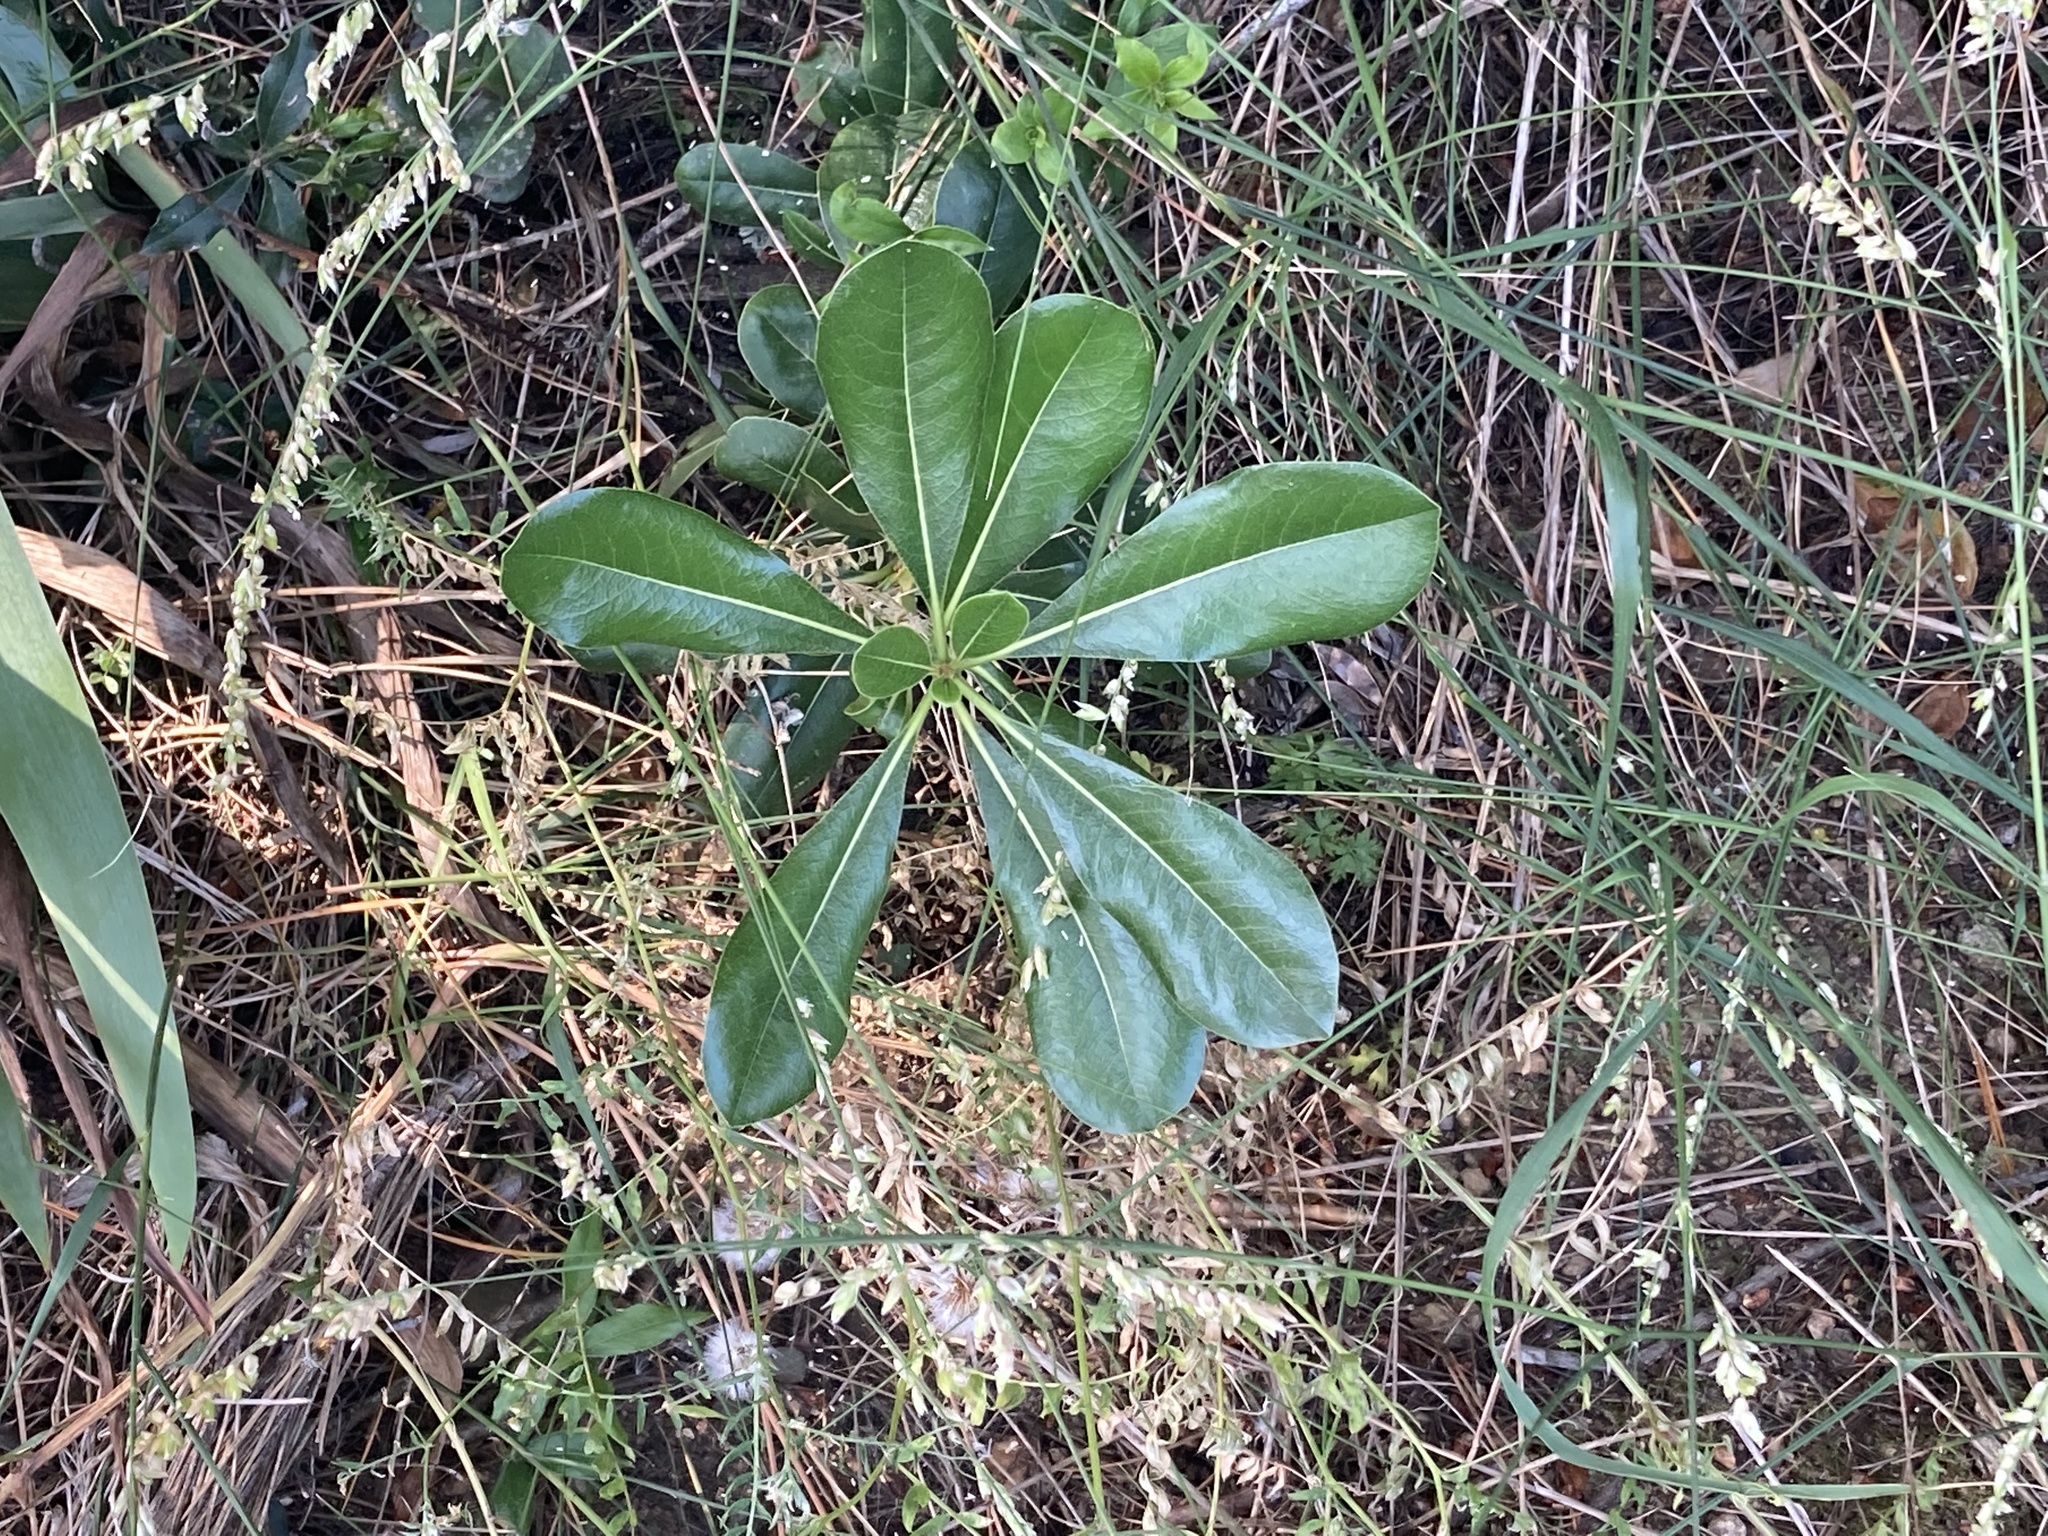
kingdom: Plantae
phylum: Tracheophyta
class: Magnoliopsida
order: Apiales
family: Pittosporaceae
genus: Pittosporum
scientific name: Pittosporum tobira
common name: Japanese cheesewood
